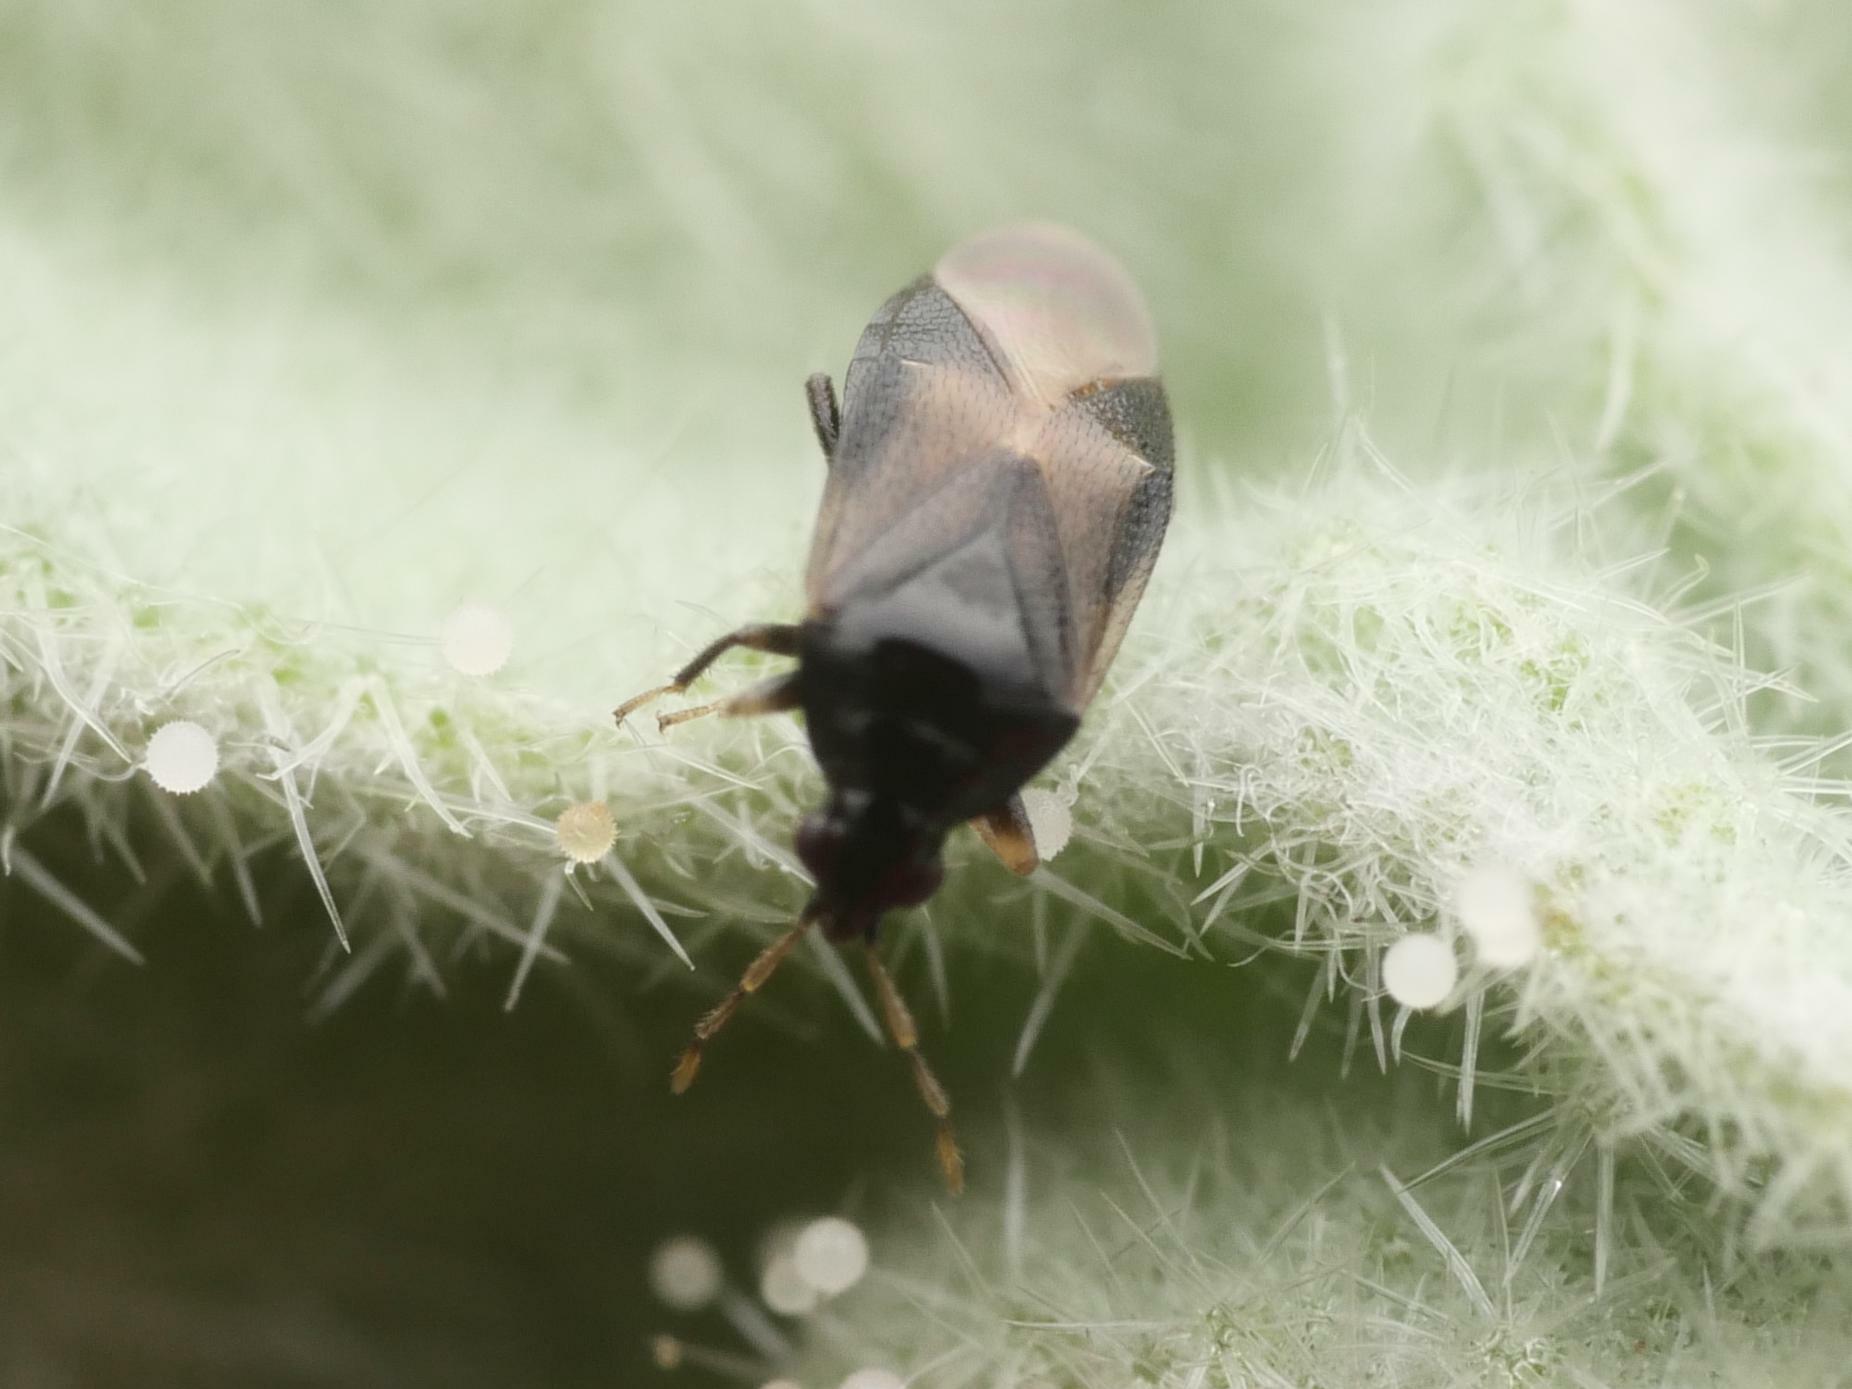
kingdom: Animalia
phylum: Arthropoda
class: Insecta
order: Hemiptera
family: Anthocoridae
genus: Orius
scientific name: Orius niger
